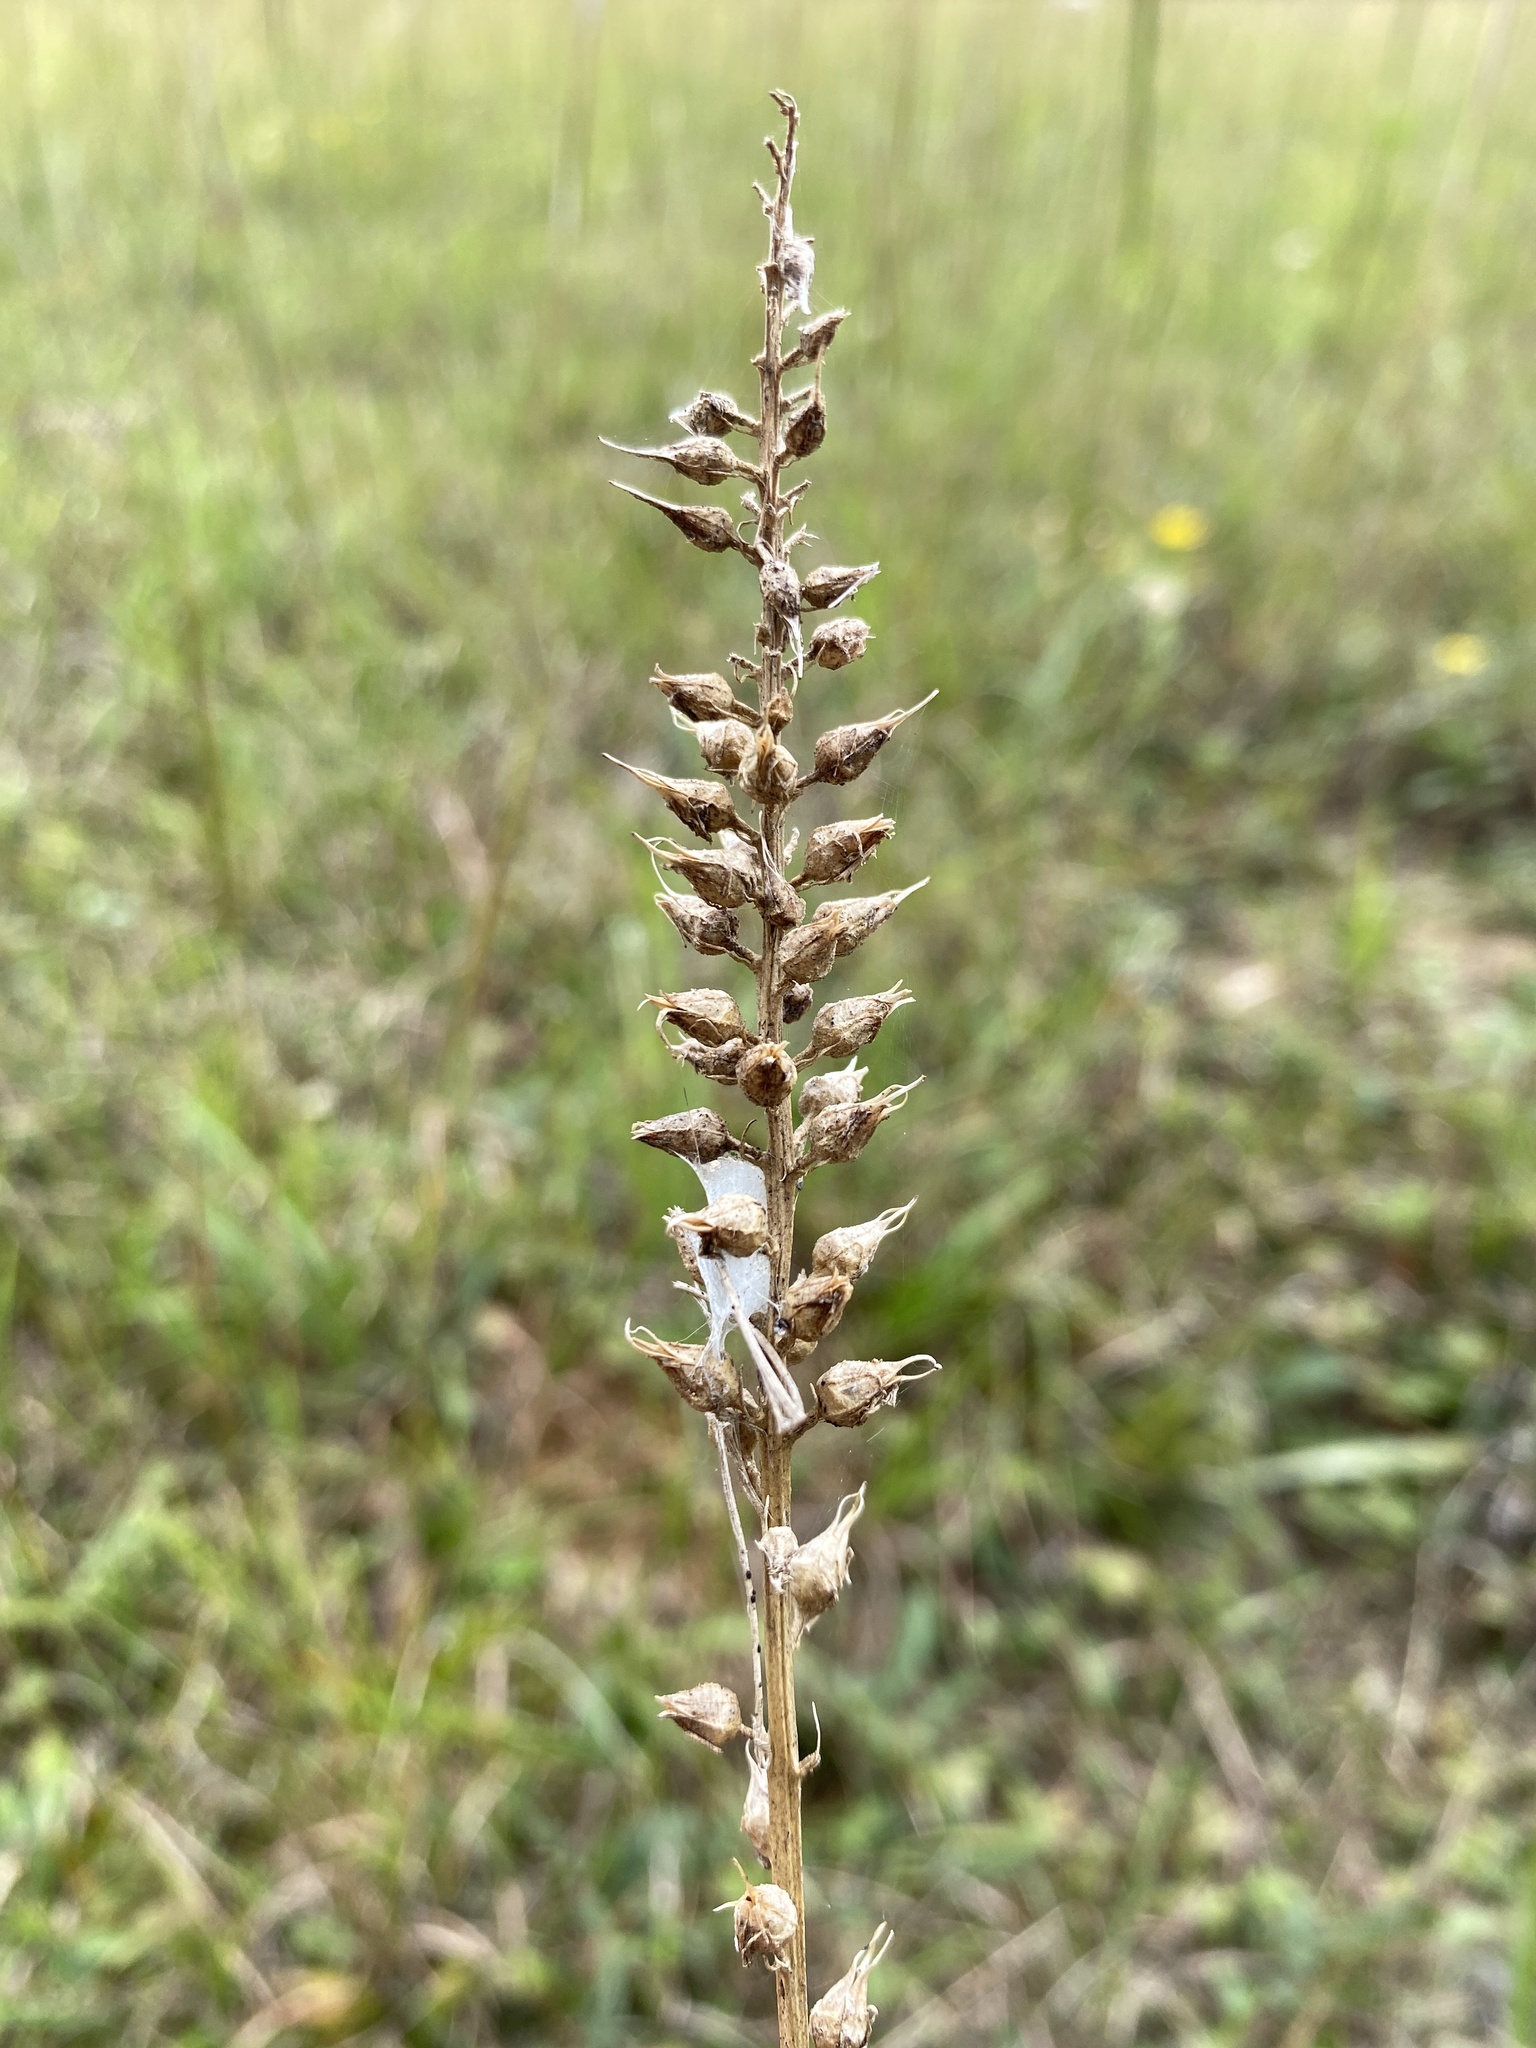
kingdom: Plantae
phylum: Tracheophyta
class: Liliopsida
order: Dioscoreales
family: Nartheciaceae
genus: Aletris
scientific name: Aletris farinosa
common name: Colicroot
